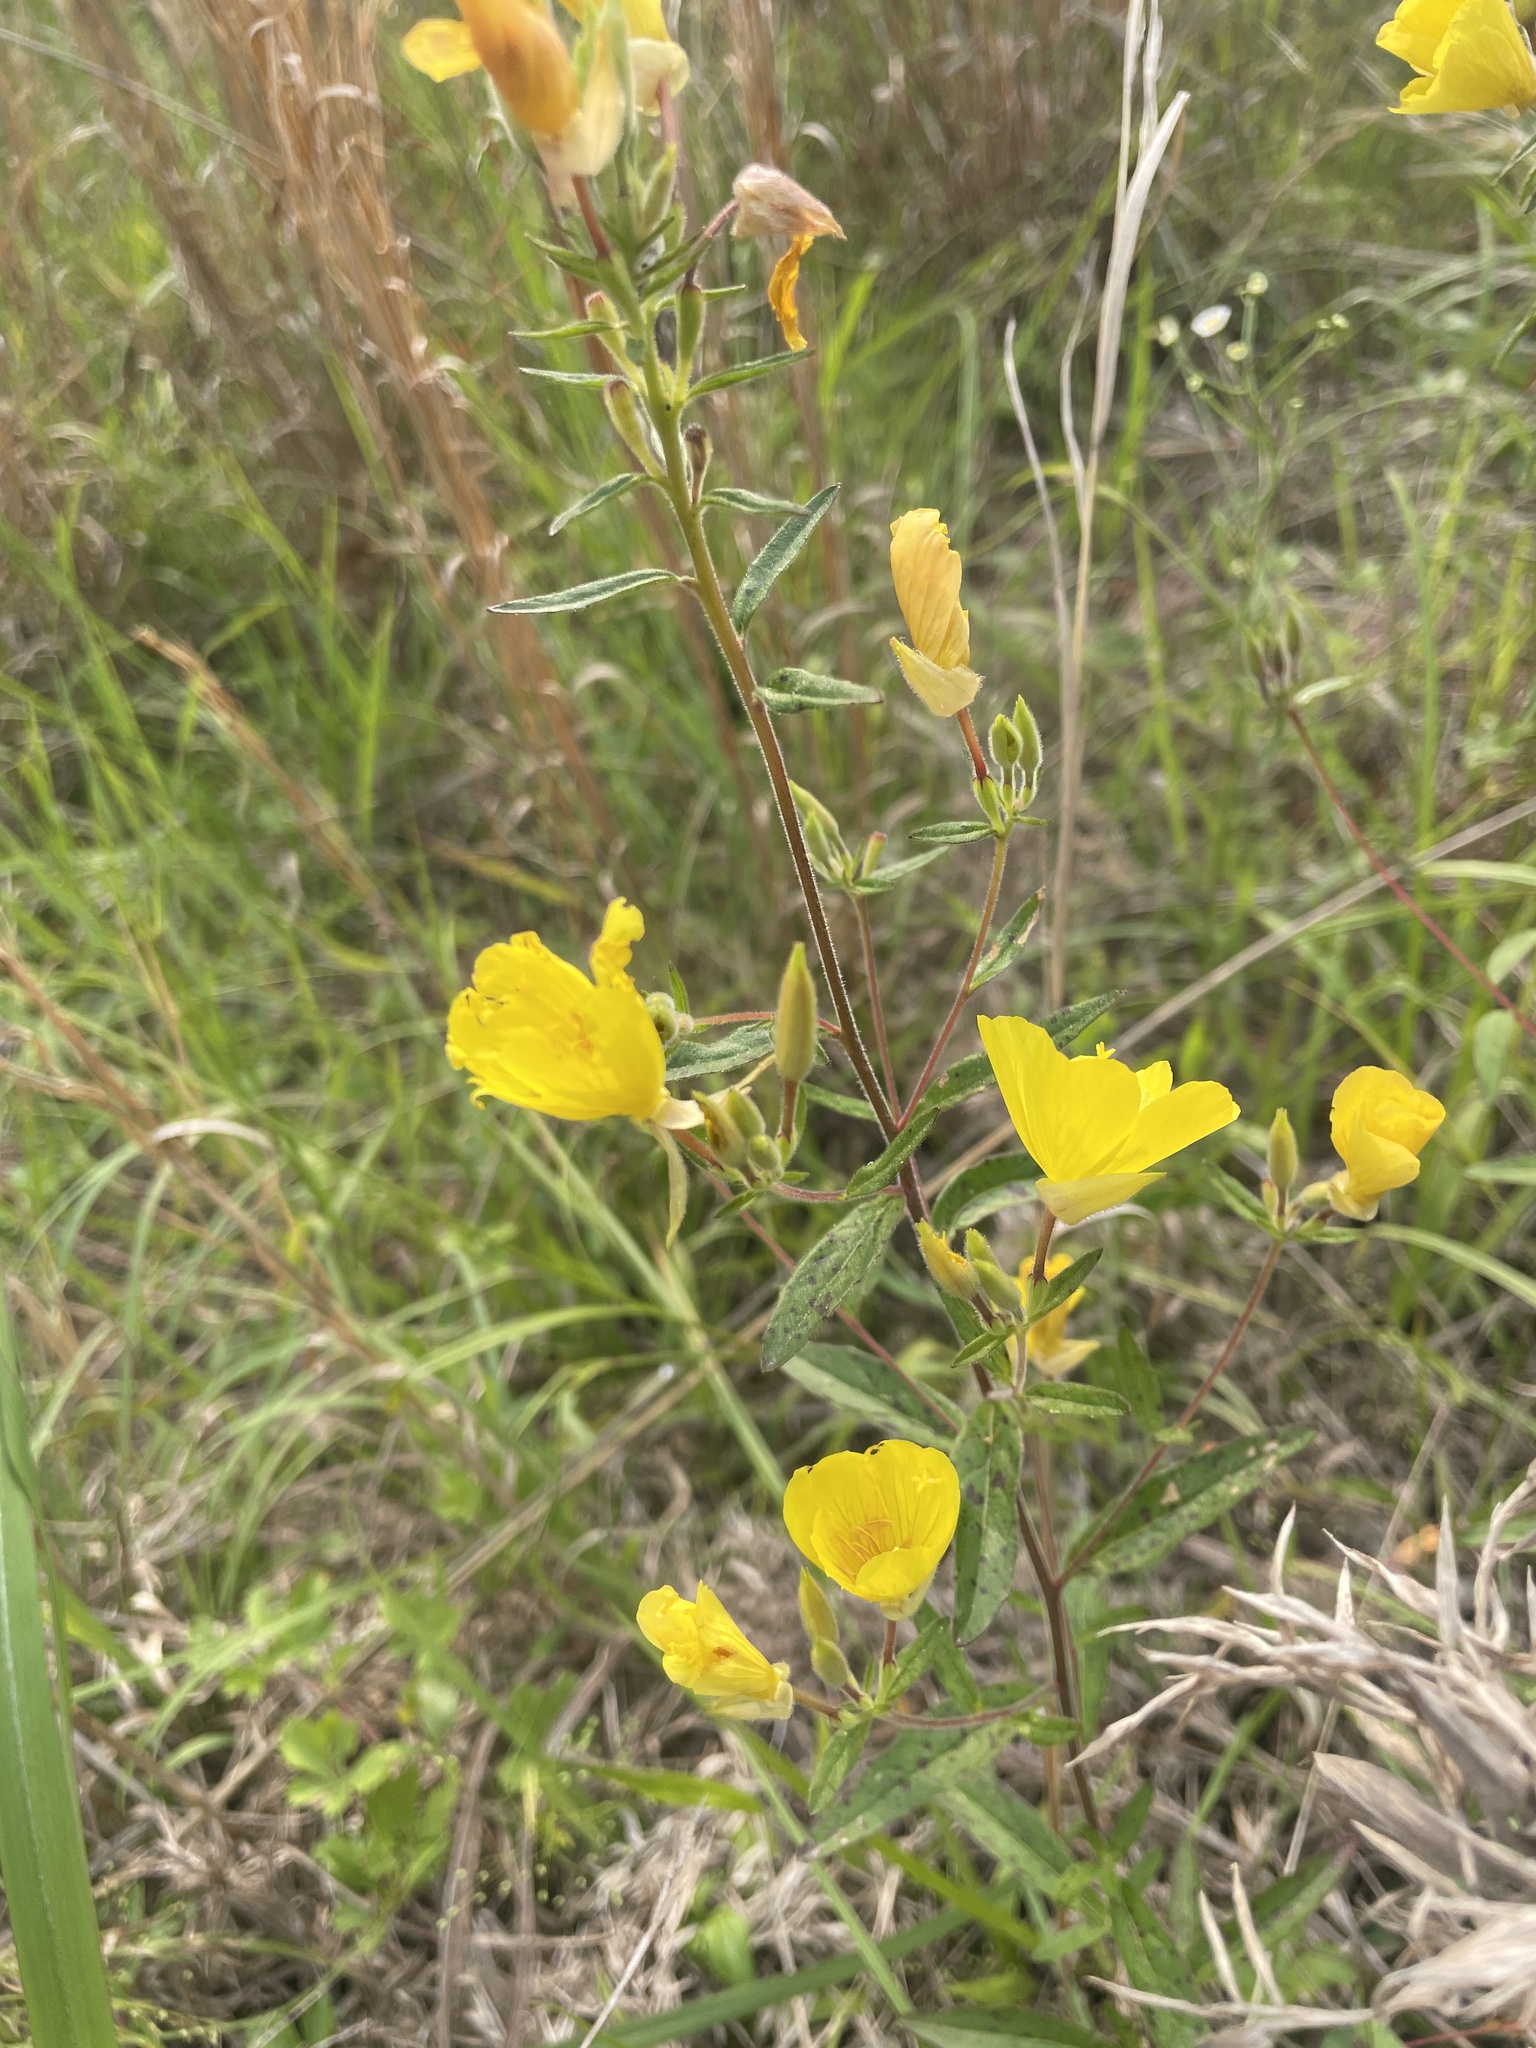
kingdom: Plantae
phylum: Tracheophyta
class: Magnoliopsida
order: Myrtales
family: Onagraceae
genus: Oenothera
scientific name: Oenothera fruticosa
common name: Southern sundrops
